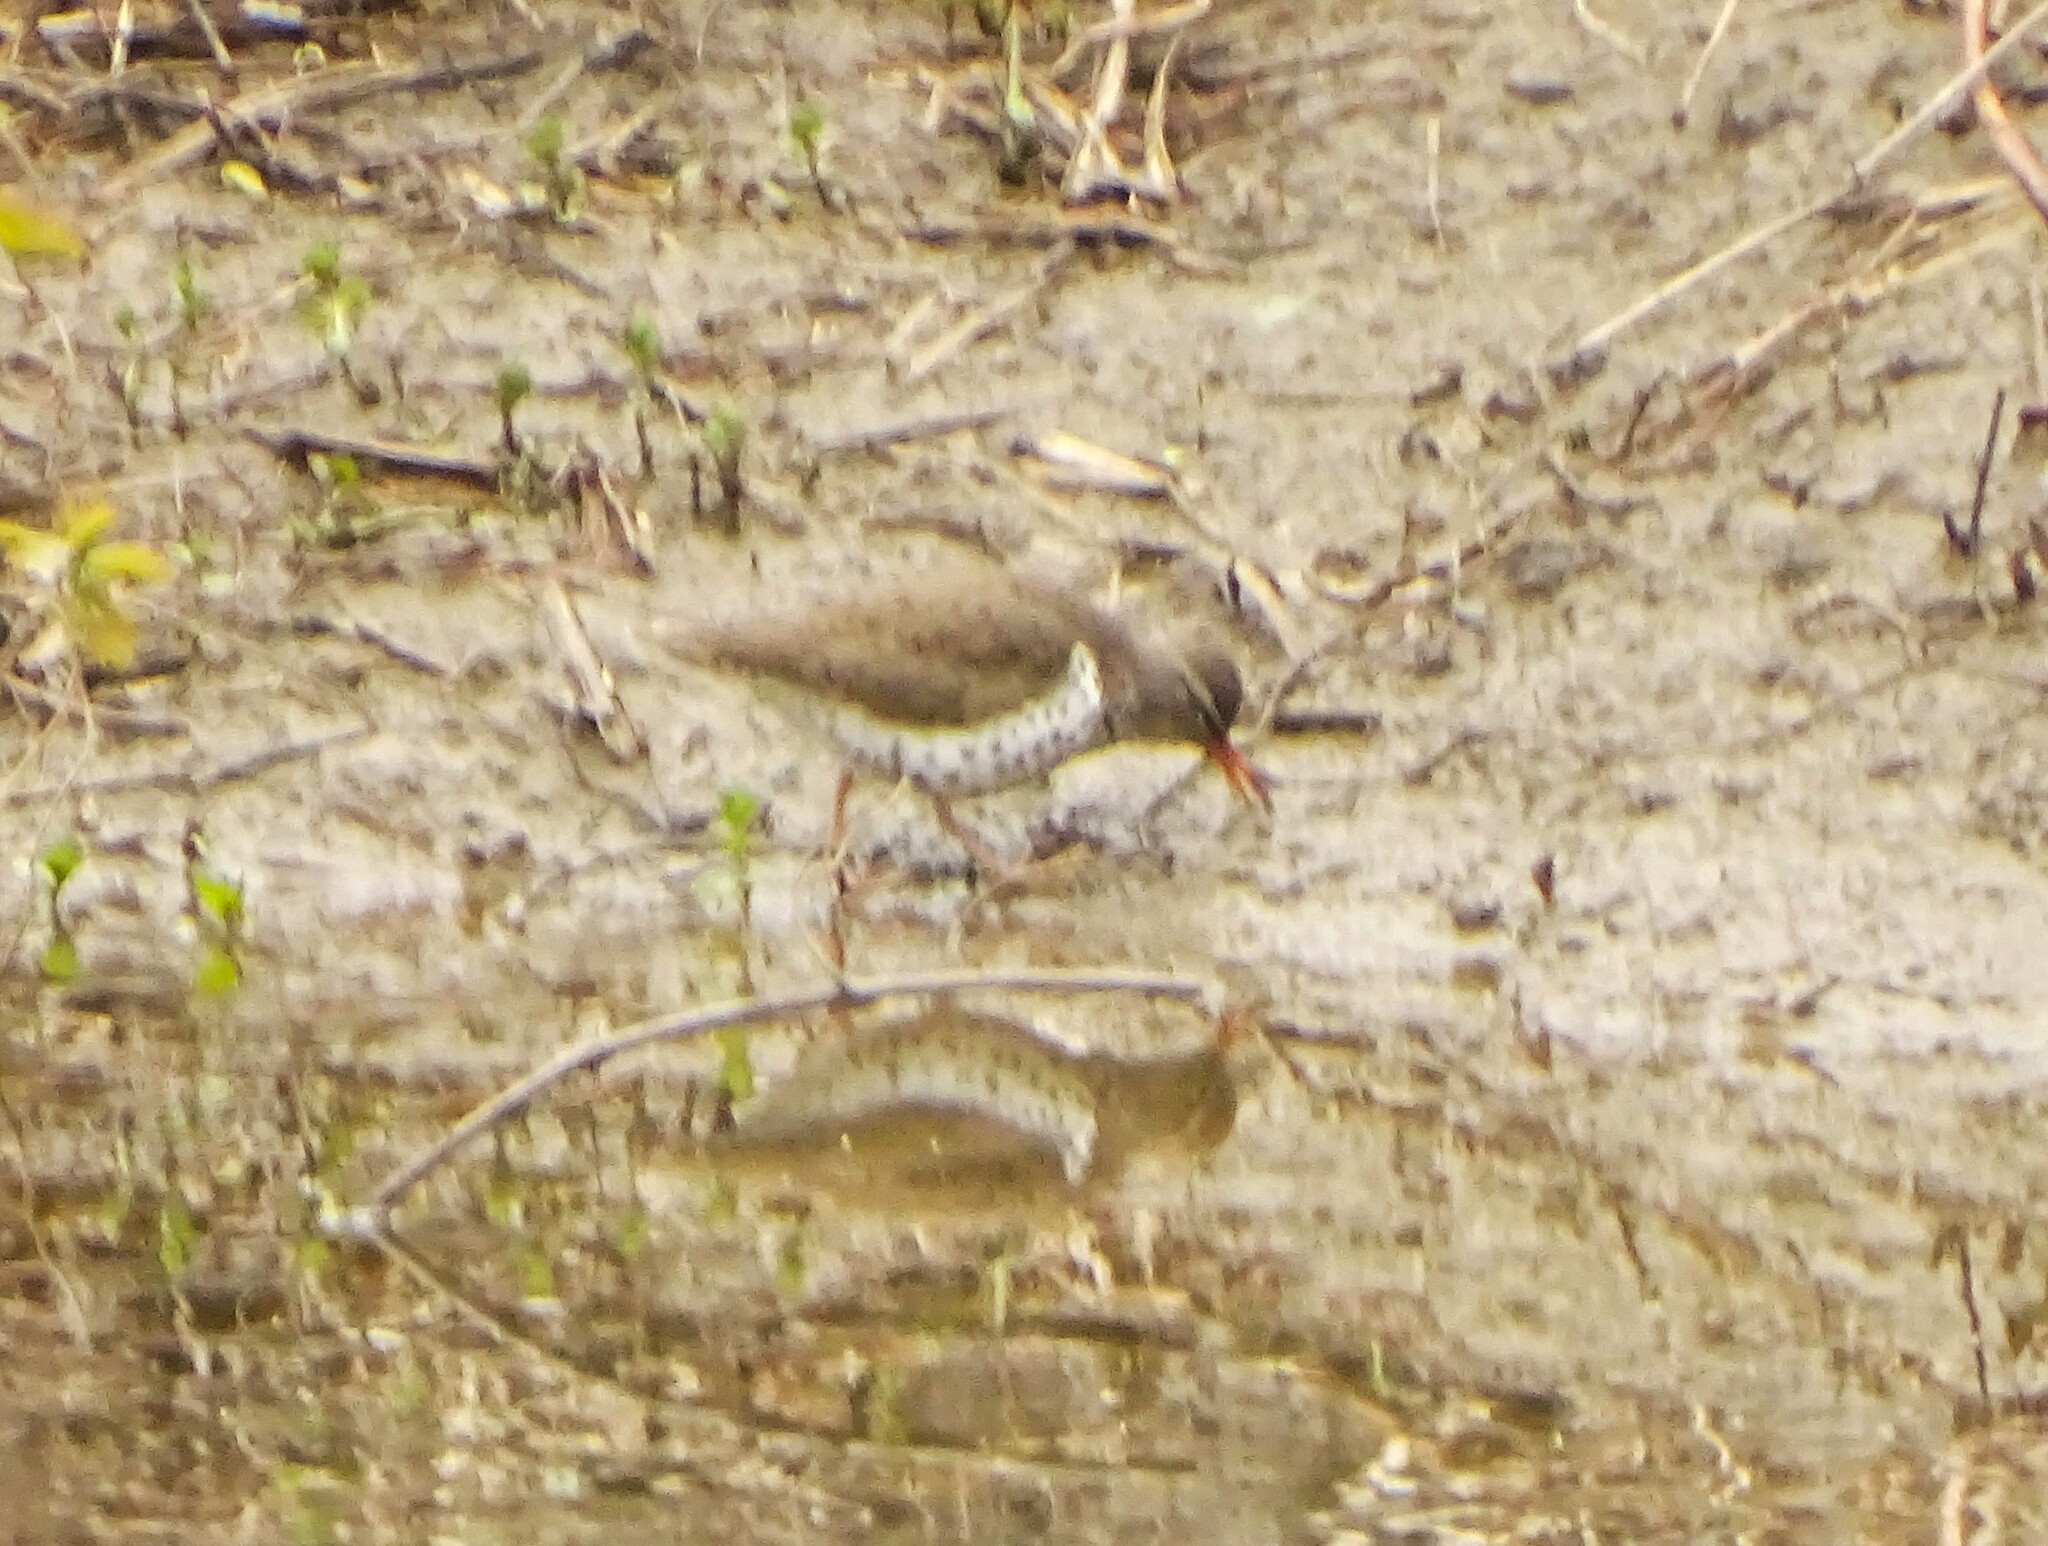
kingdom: Animalia
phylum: Chordata
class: Aves
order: Charadriiformes
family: Scolopacidae
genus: Actitis
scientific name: Actitis macularius
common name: Spotted sandpiper
